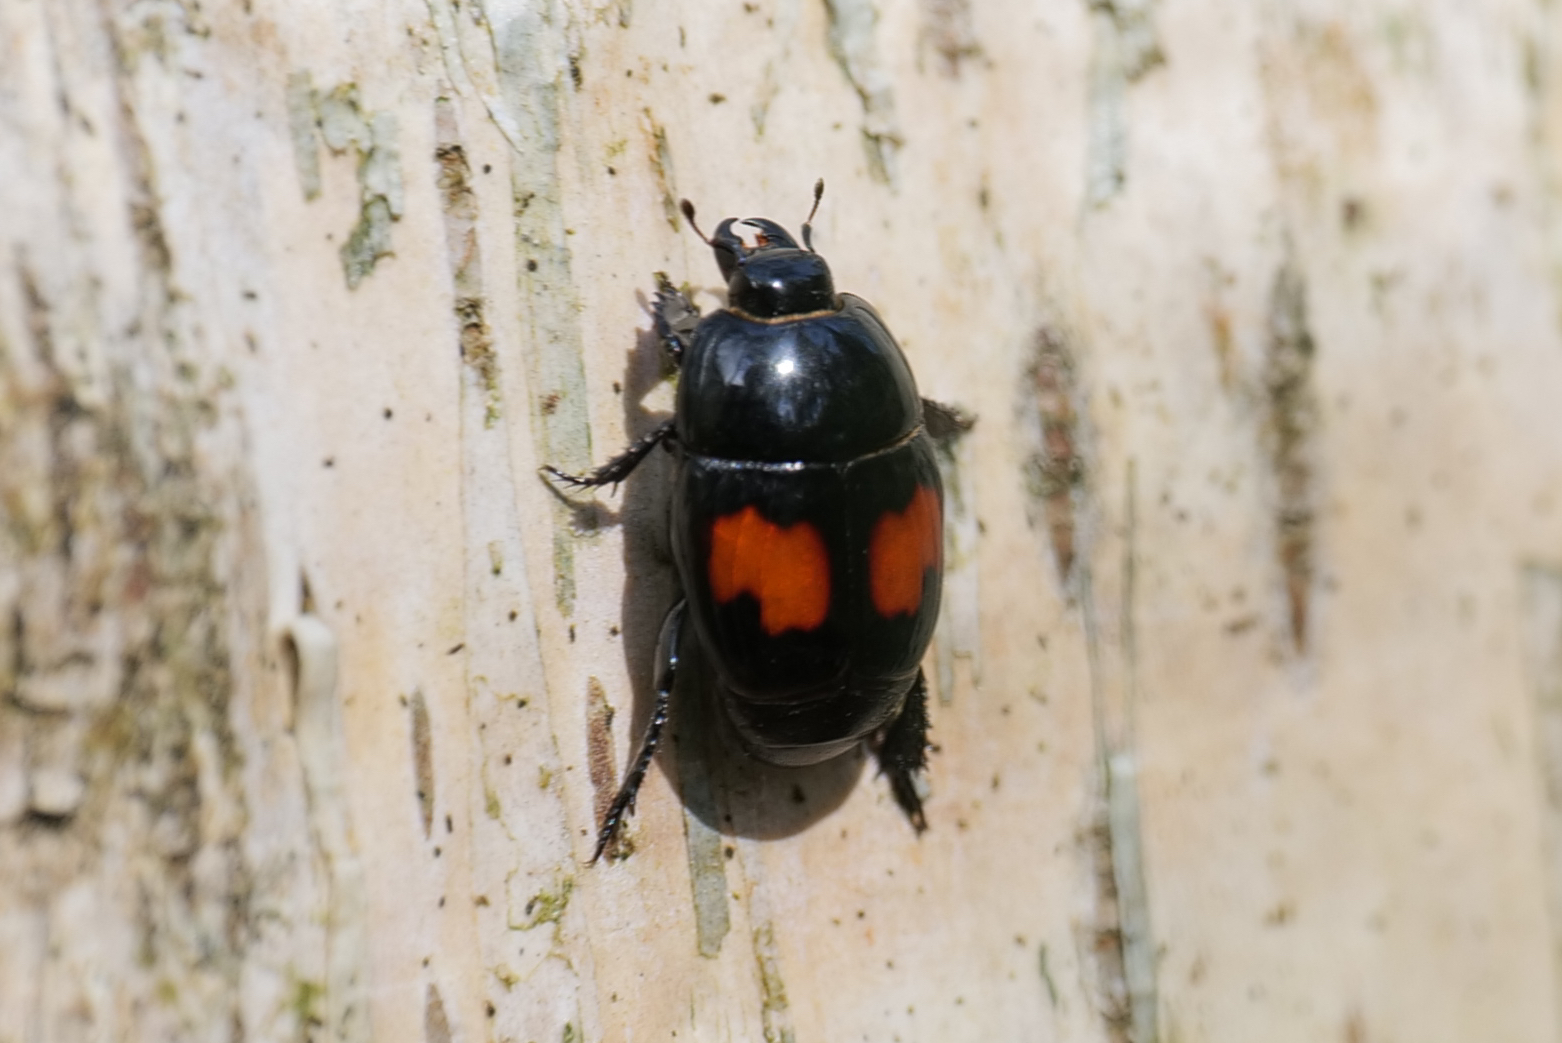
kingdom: Animalia
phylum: Arthropoda
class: Insecta
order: Coleoptera
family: Histeridae
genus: Margarinotus
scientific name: Margarinotus bipustulatus
